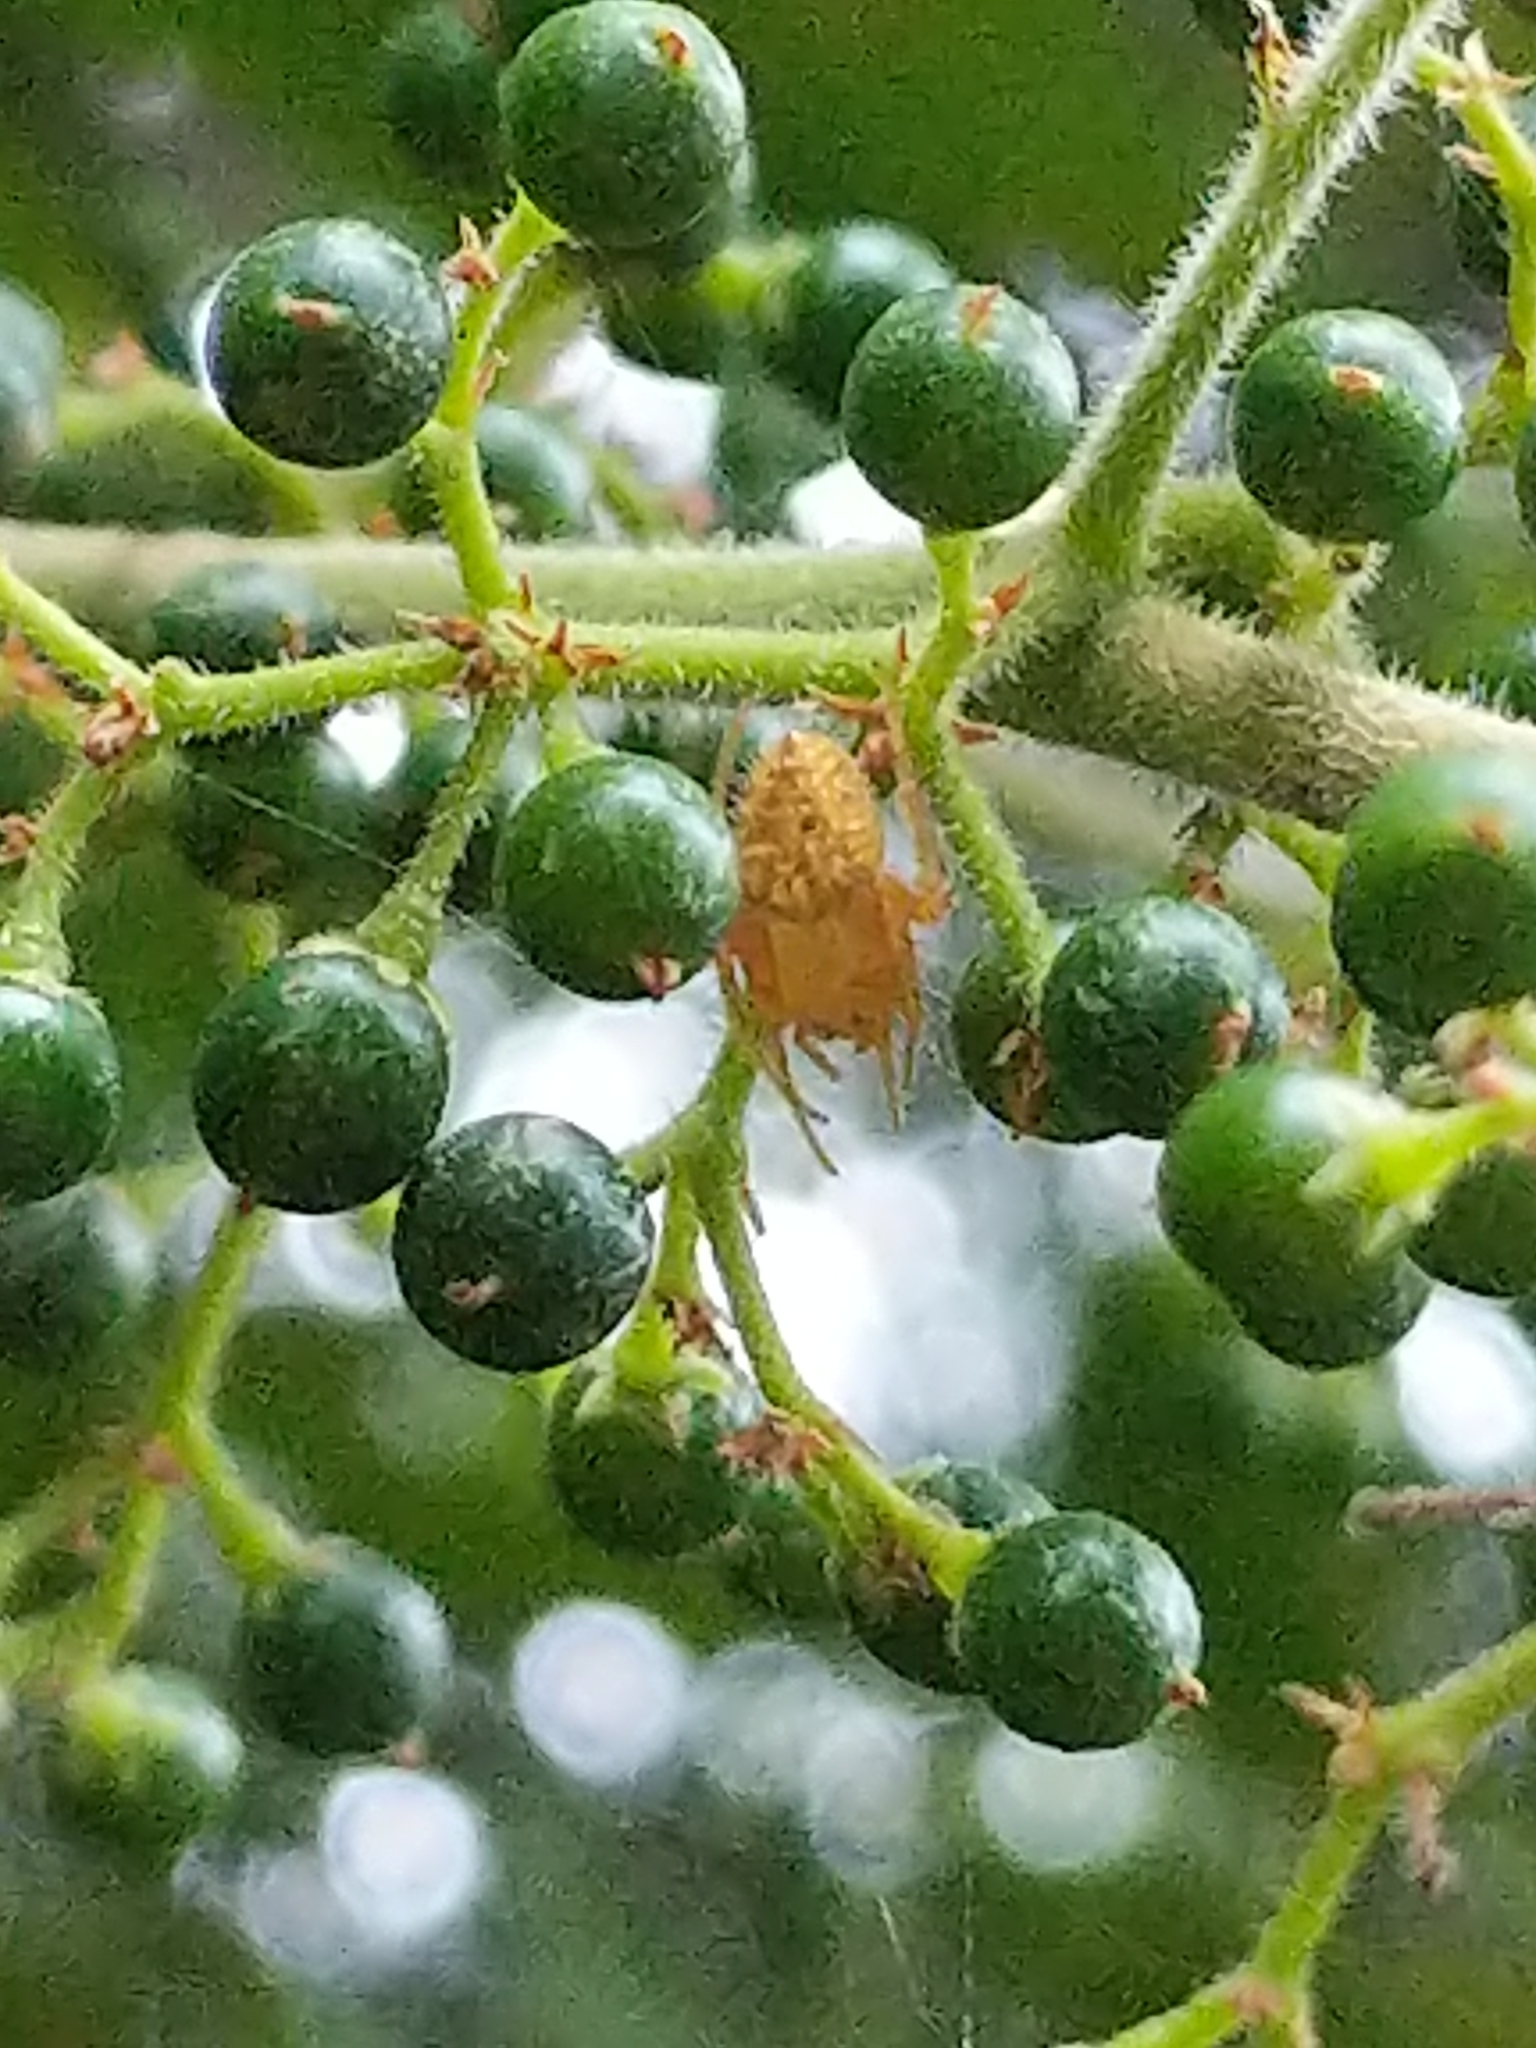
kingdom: Animalia
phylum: Arthropoda
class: Arachnida
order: Araneae
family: Araneidae
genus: Eriophora
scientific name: Eriophora edax
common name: Orb weavers
